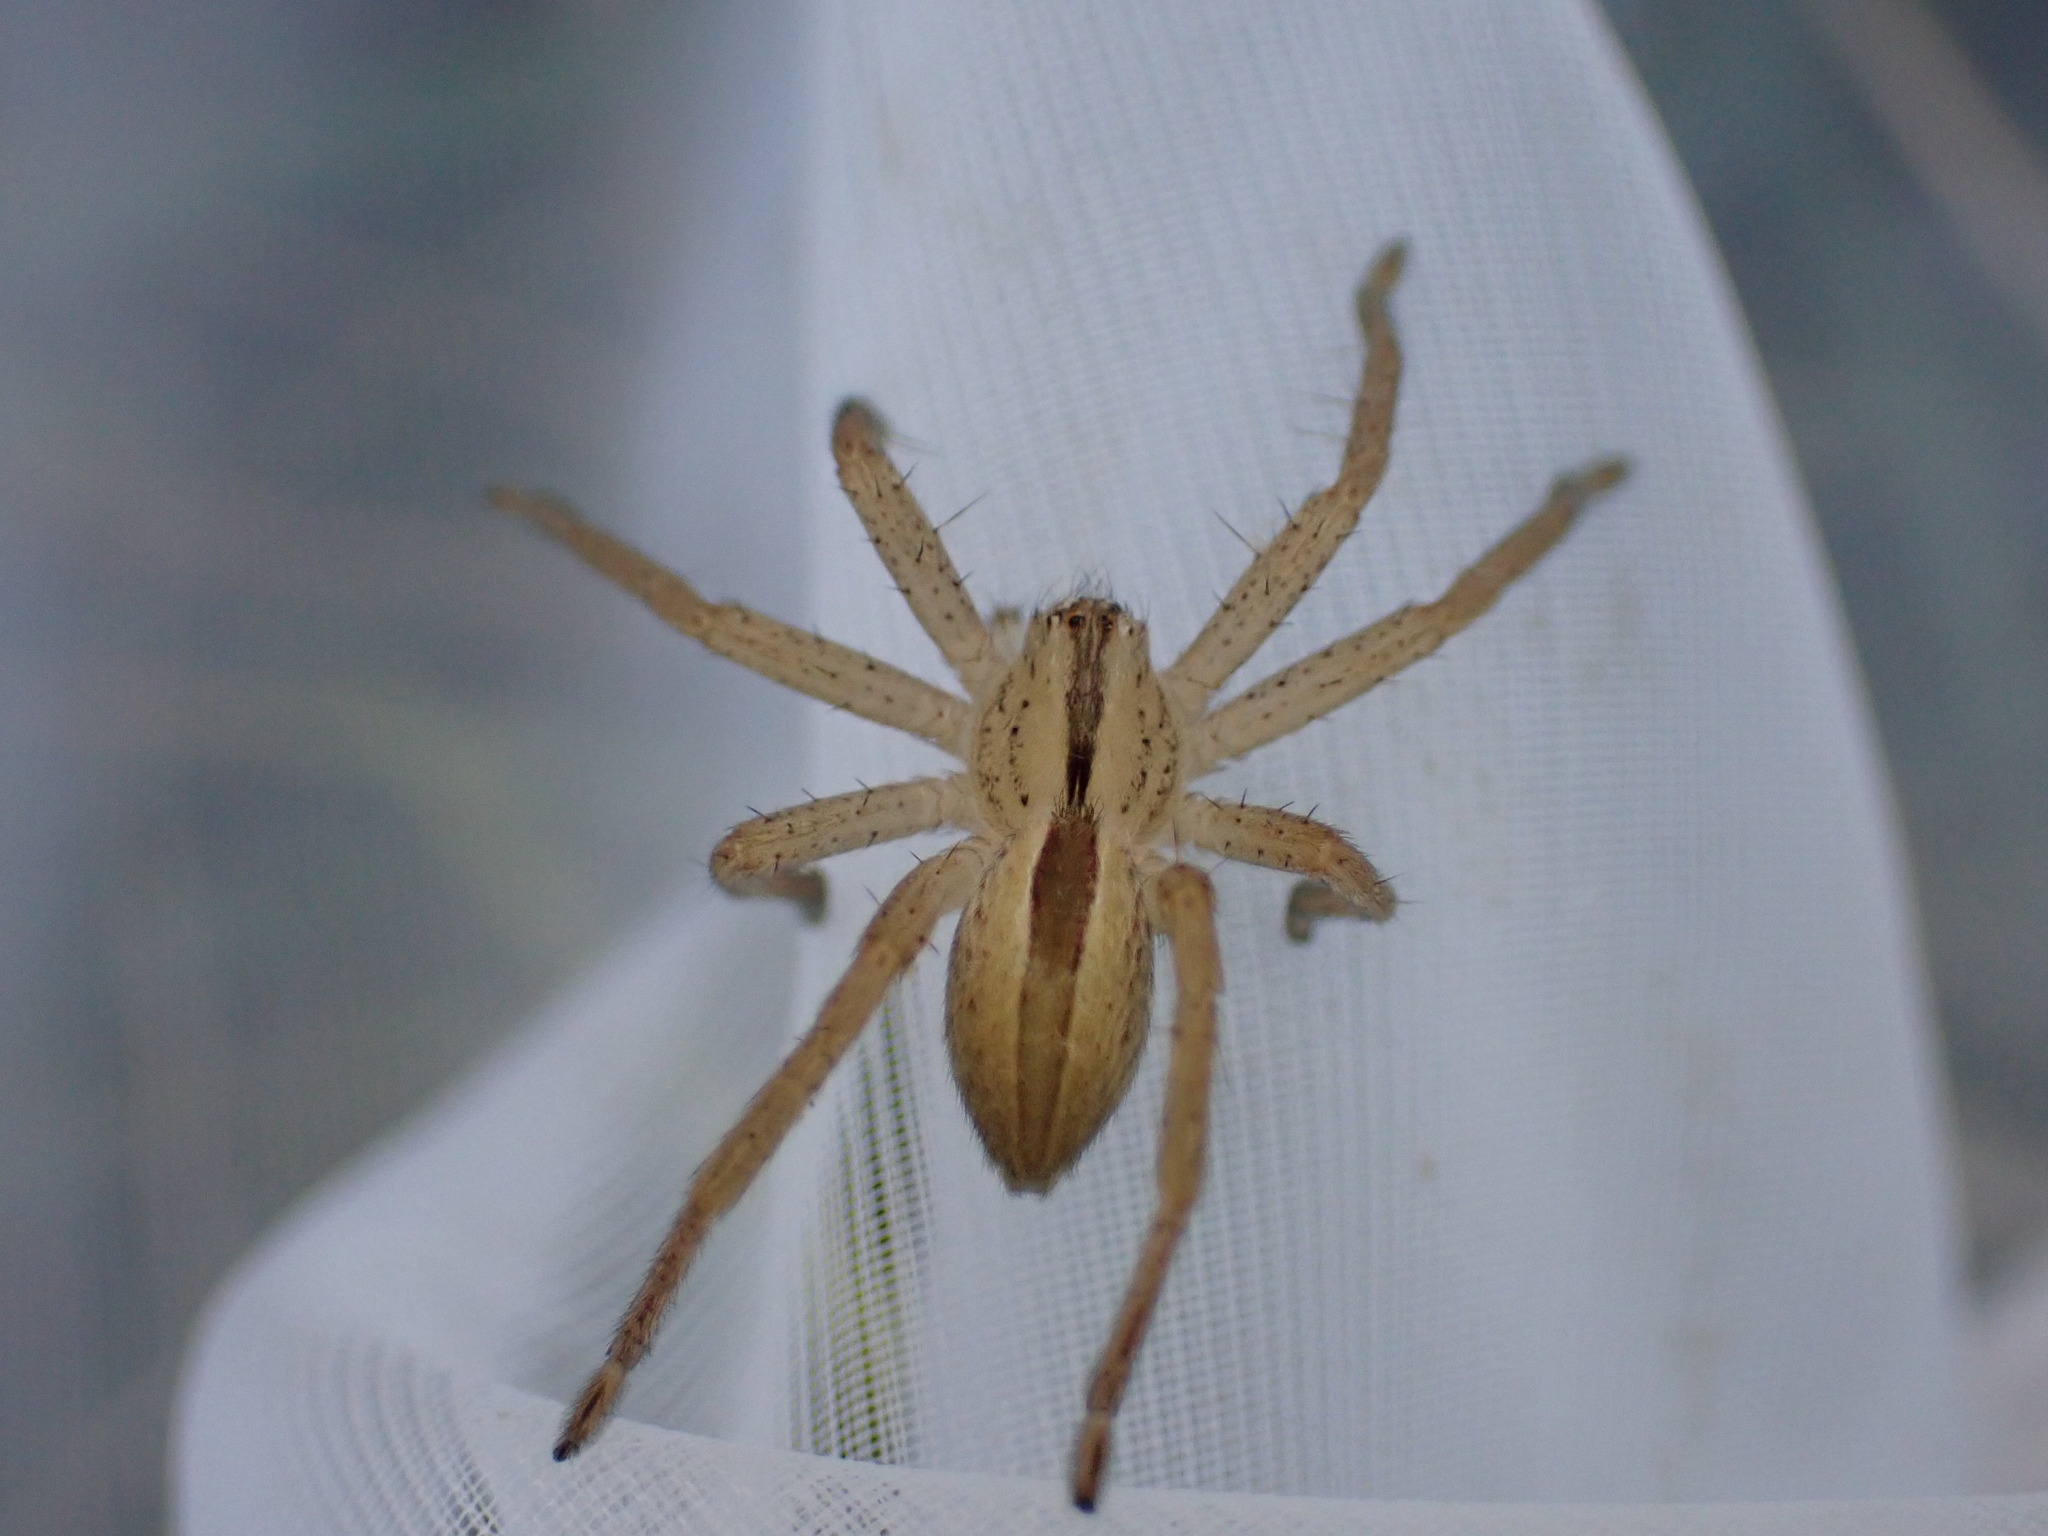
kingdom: Animalia
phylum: Arthropoda
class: Arachnida
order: Araneae
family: Sparassidae
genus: Micrommata
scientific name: Micrommata ligurina
